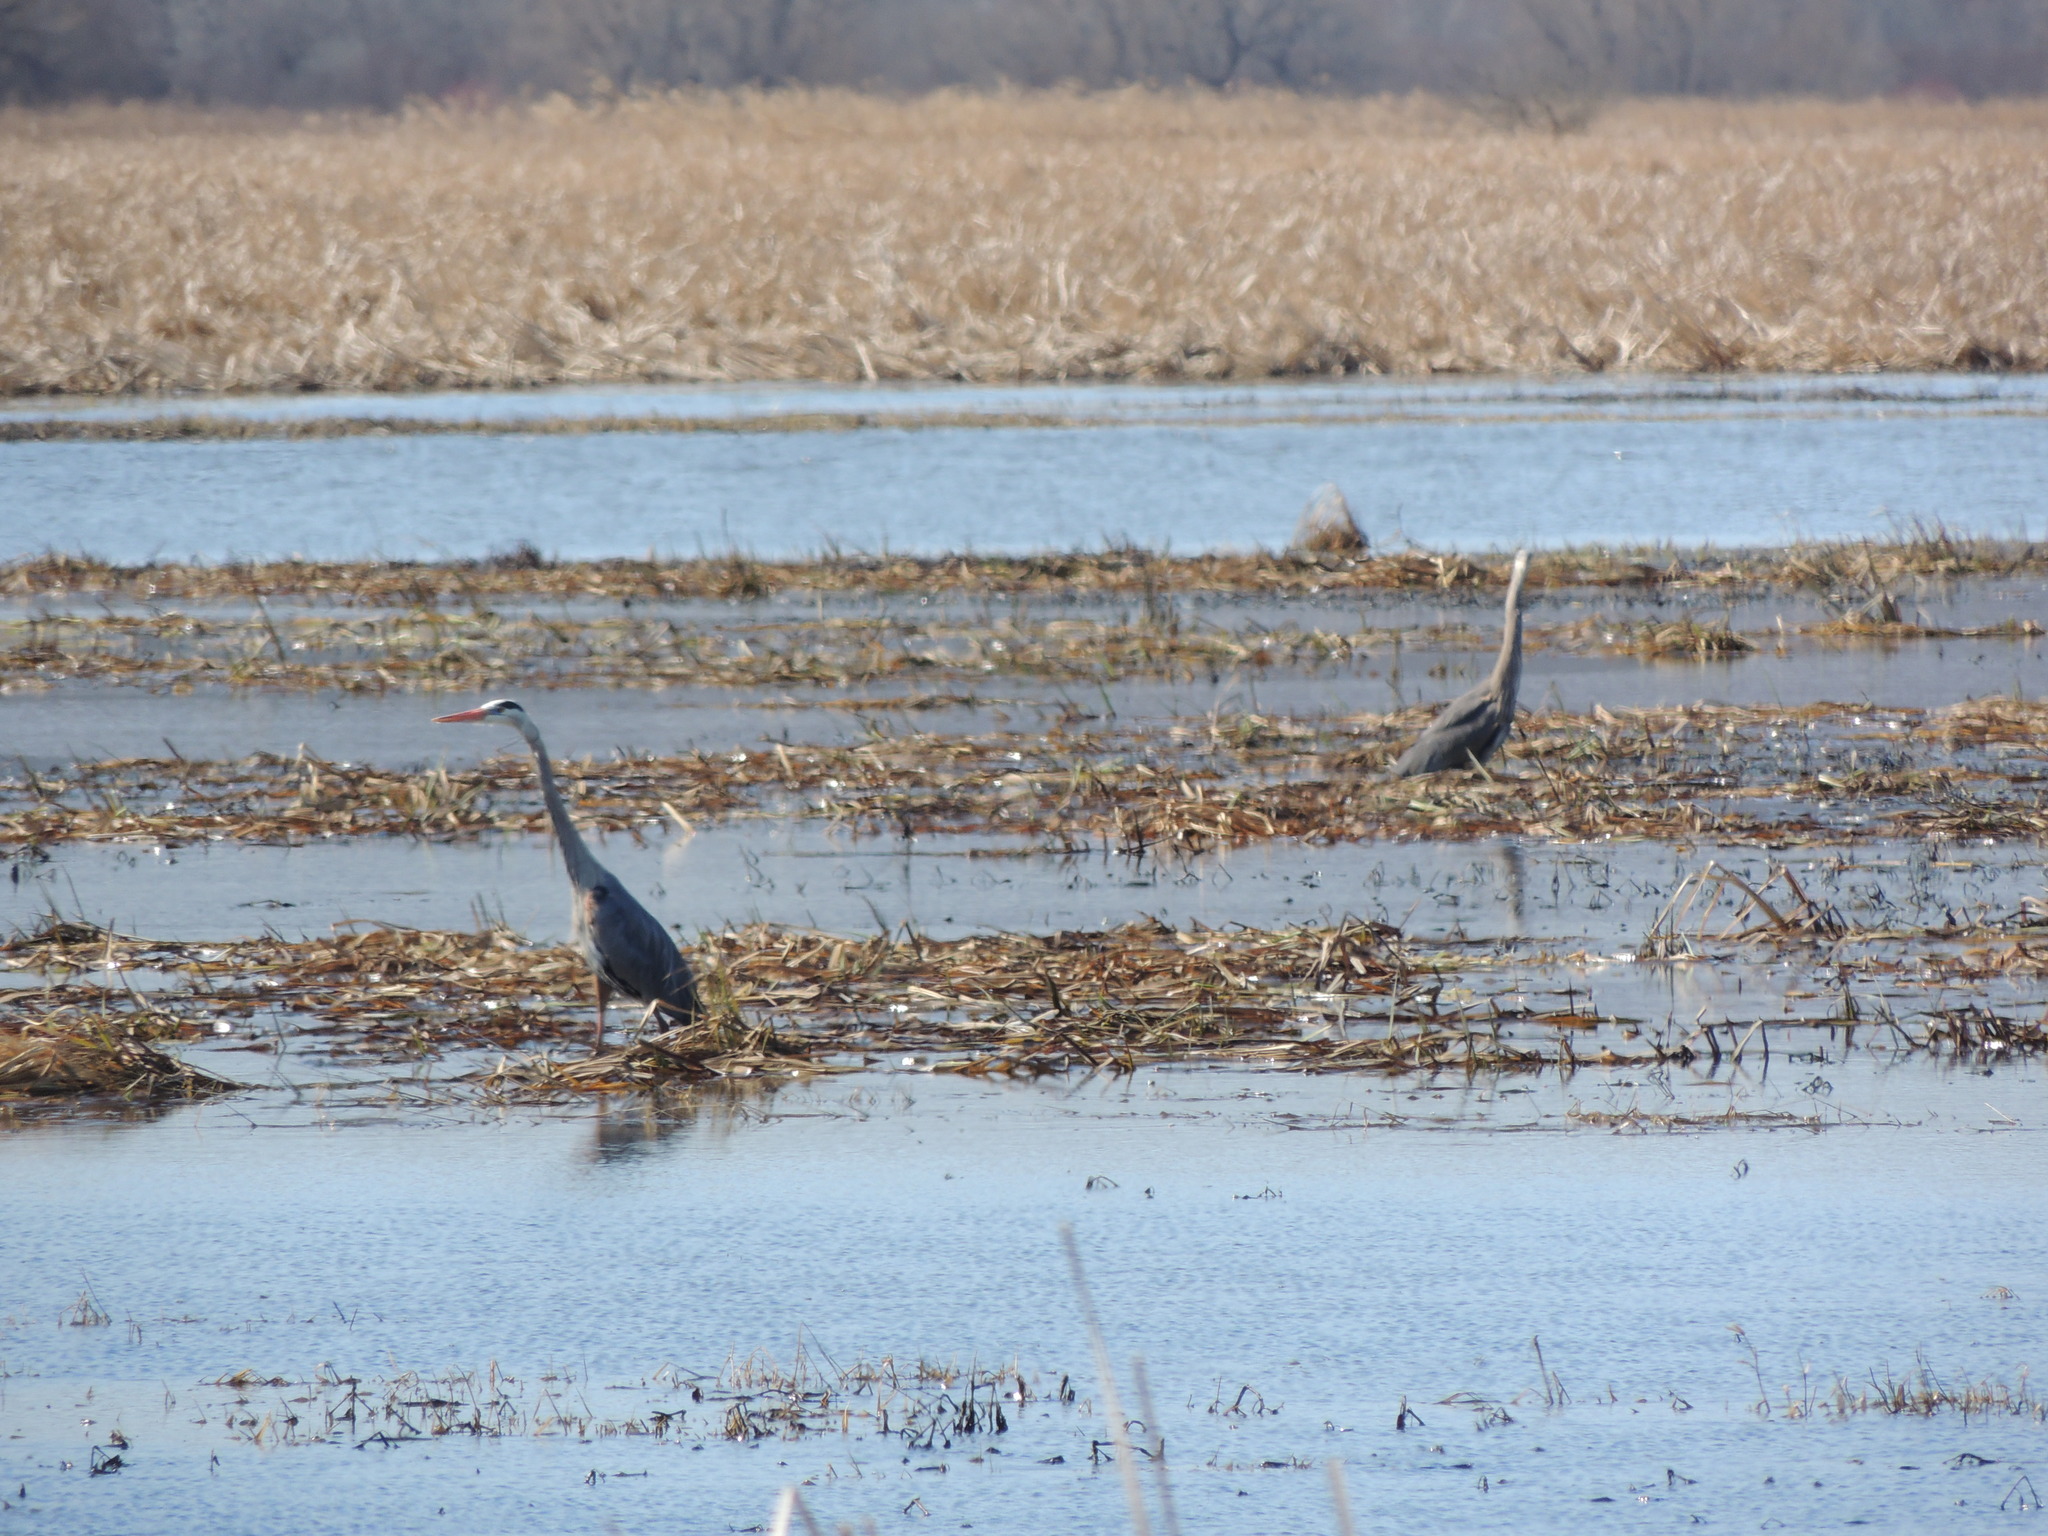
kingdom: Animalia
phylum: Chordata
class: Aves
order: Pelecaniformes
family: Ardeidae
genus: Ardea
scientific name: Ardea herodias
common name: Great blue heron
